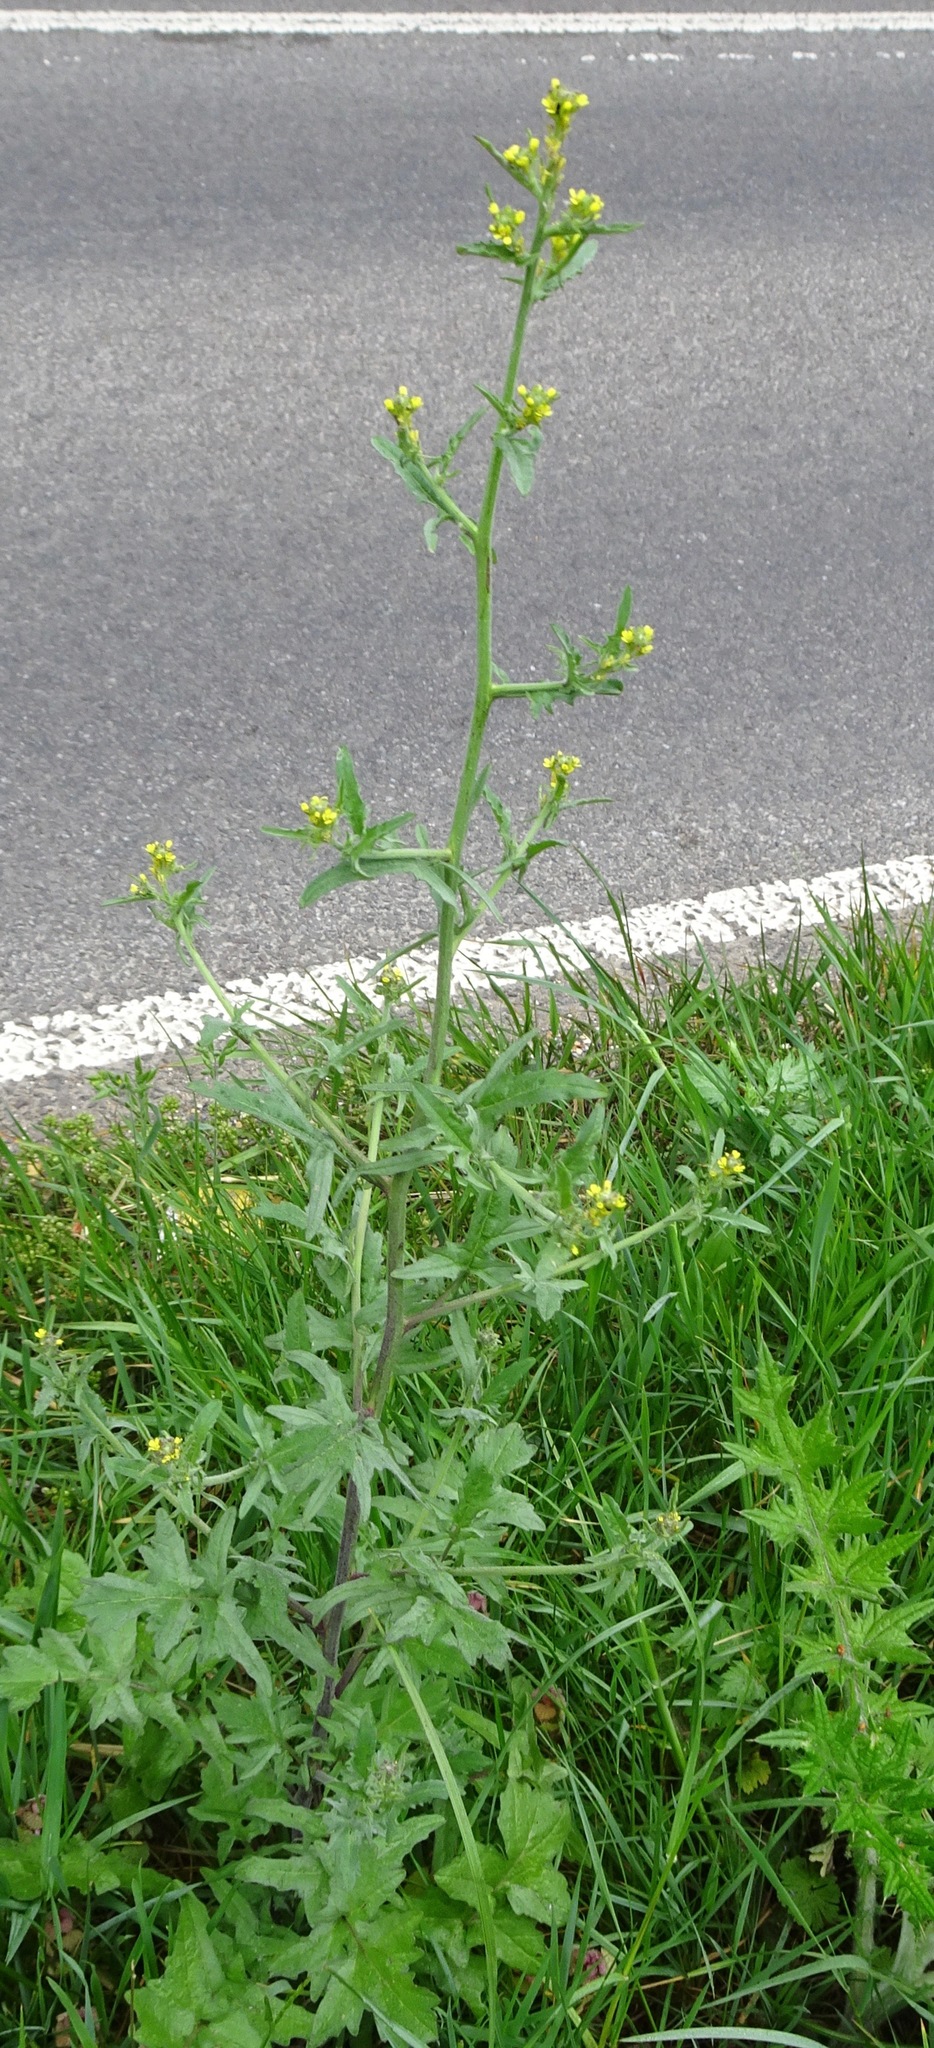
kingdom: Plantae
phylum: Tracheophyta
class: Magnoliopsida
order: Brassicales
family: Brassicaceae
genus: Sisymbrium
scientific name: Sisymbrium officinale
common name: Hedge mustard
